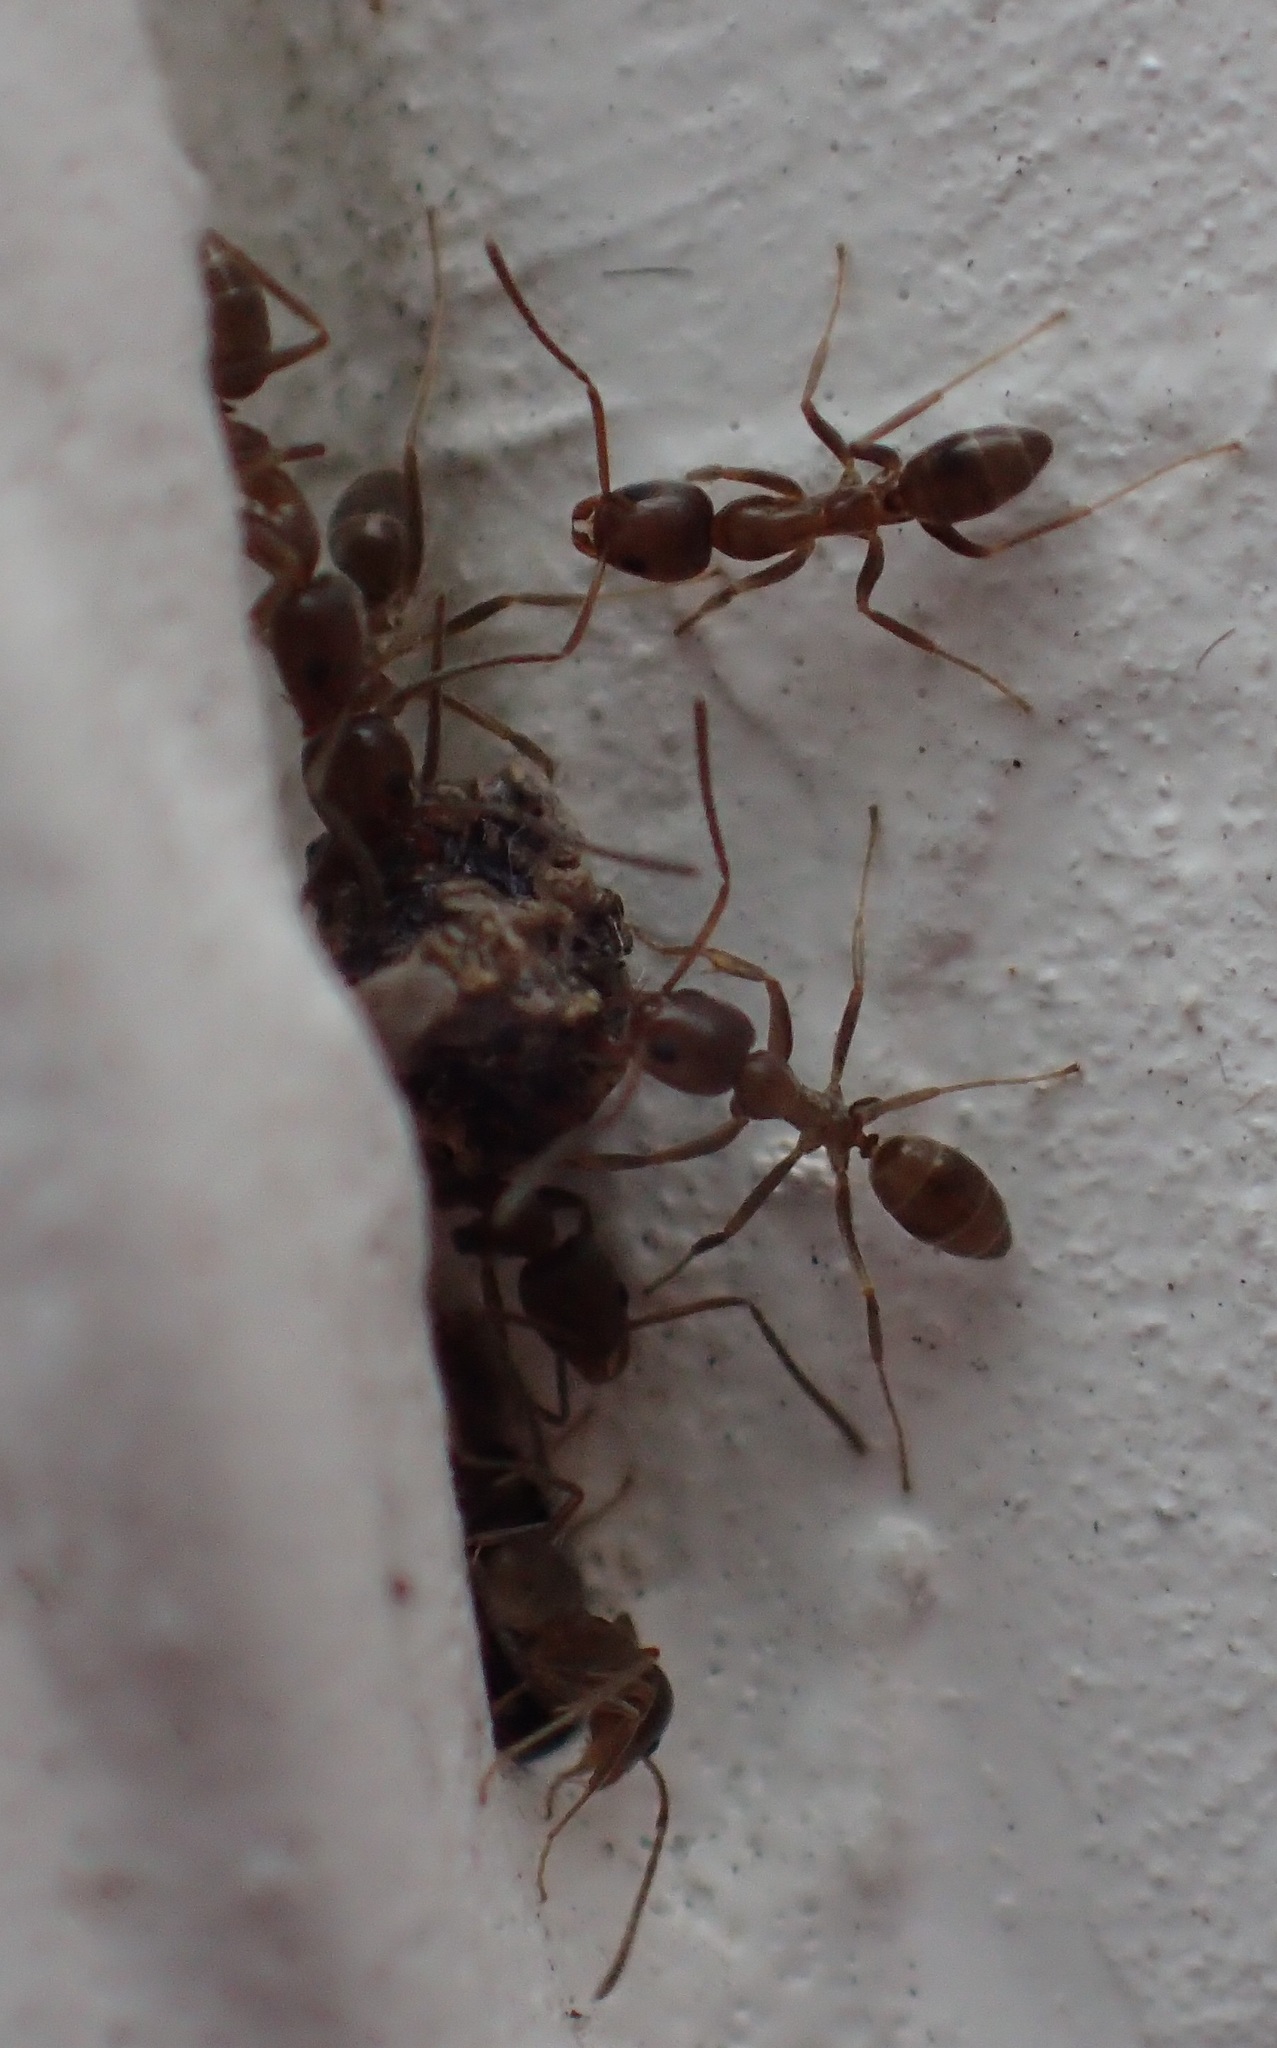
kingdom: Animalia
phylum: Arthropoda
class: Insecta
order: Hymenoptera
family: Formicidae
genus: Linepithema
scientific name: Linepithema humile
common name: Argentine ant
